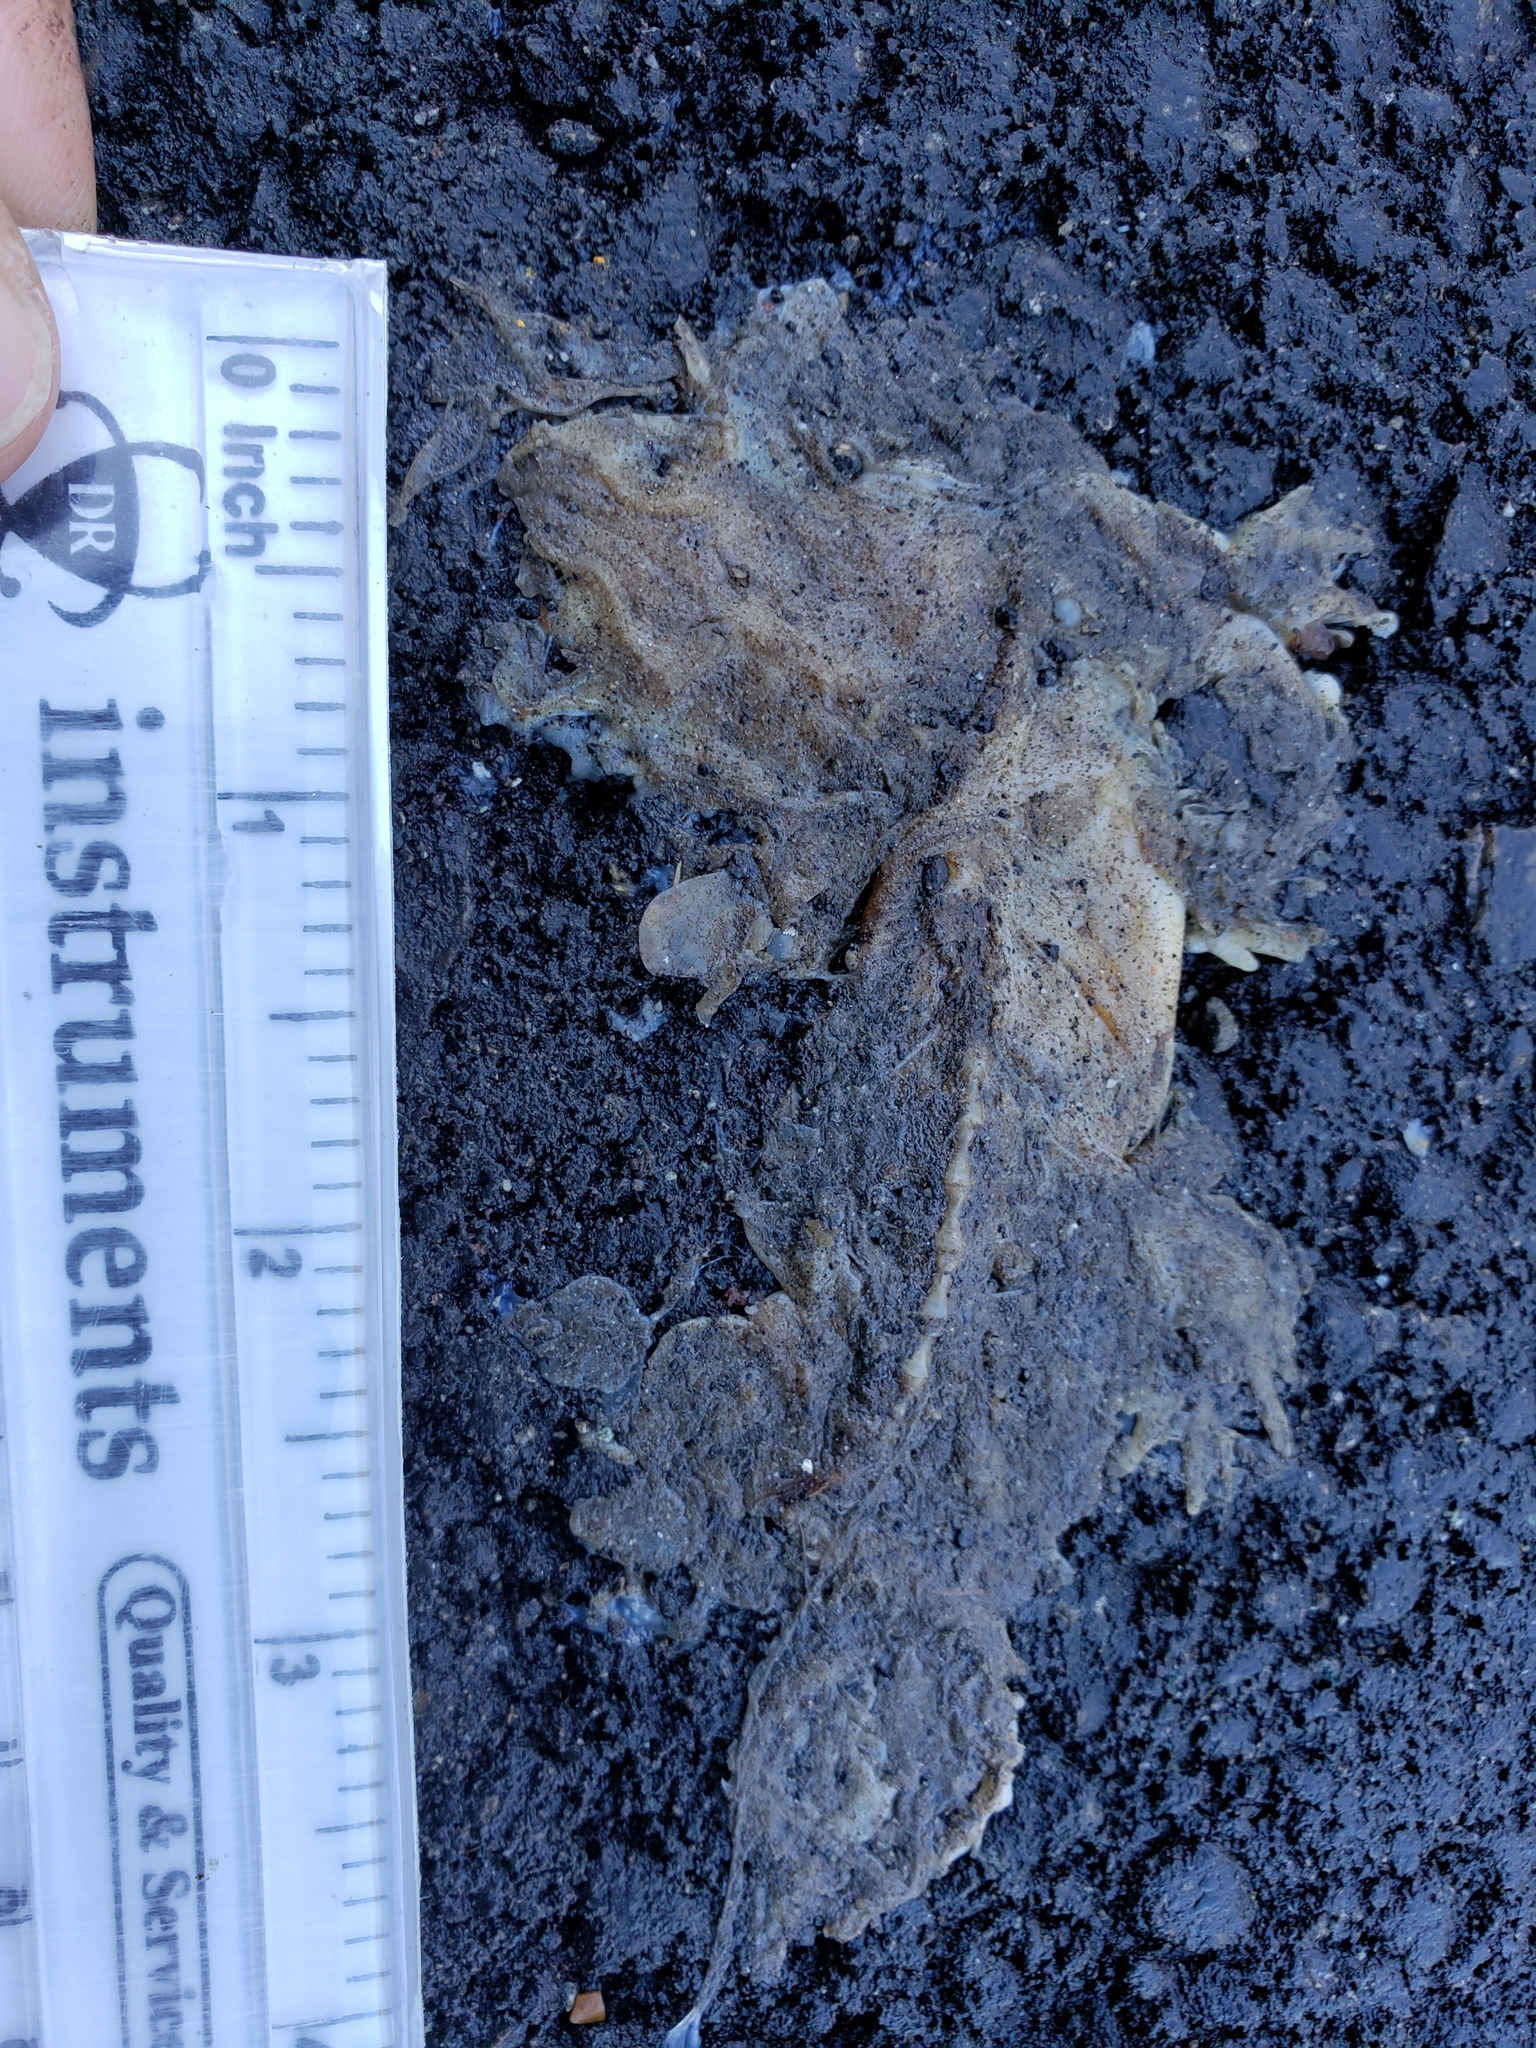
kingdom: Animalia
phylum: Chordata
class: Amphibia
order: Caudata
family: Salamandridae
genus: Taricha
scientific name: Taricha
